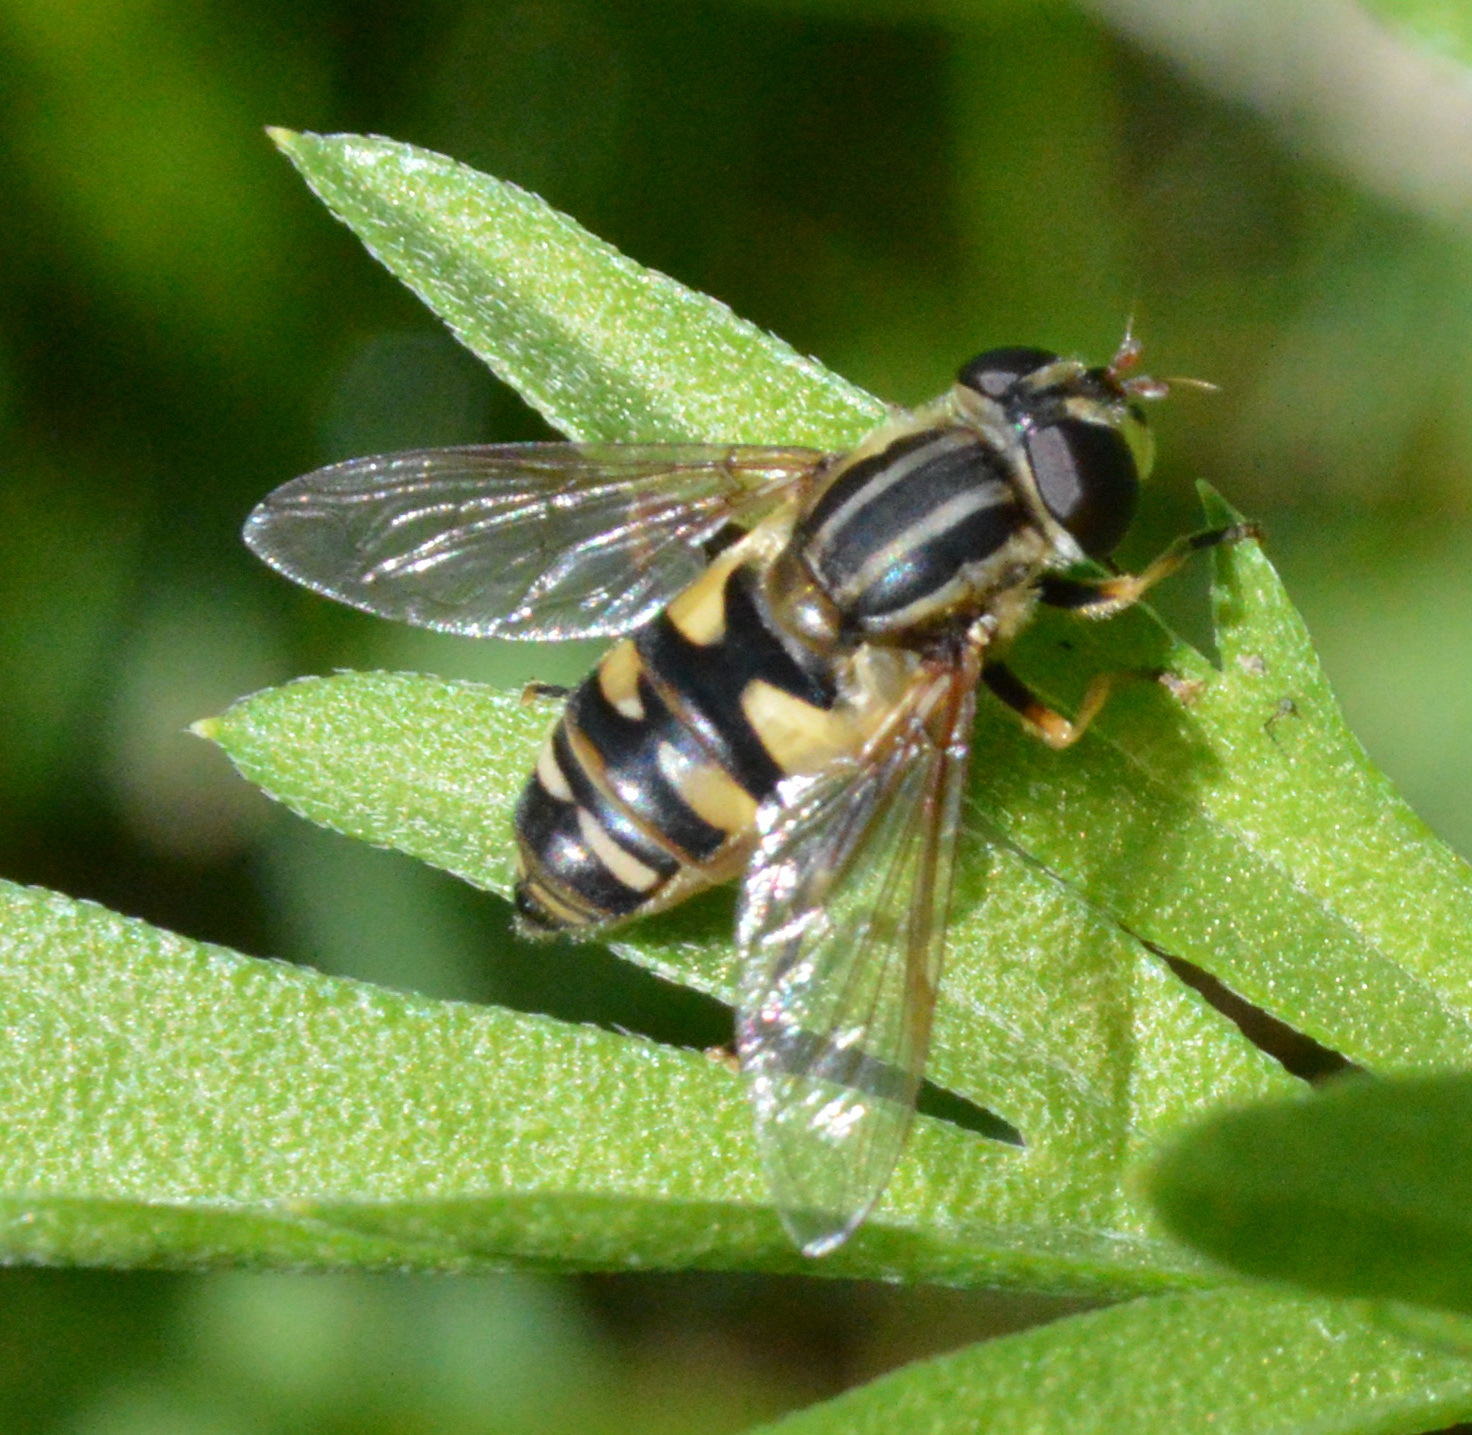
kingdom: Animalia
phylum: Arthropoda
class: Insecta
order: Diptera
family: Syrphidae
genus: Helophilus
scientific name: Helophilus fasciatus
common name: Narrow-headed marsh fly
